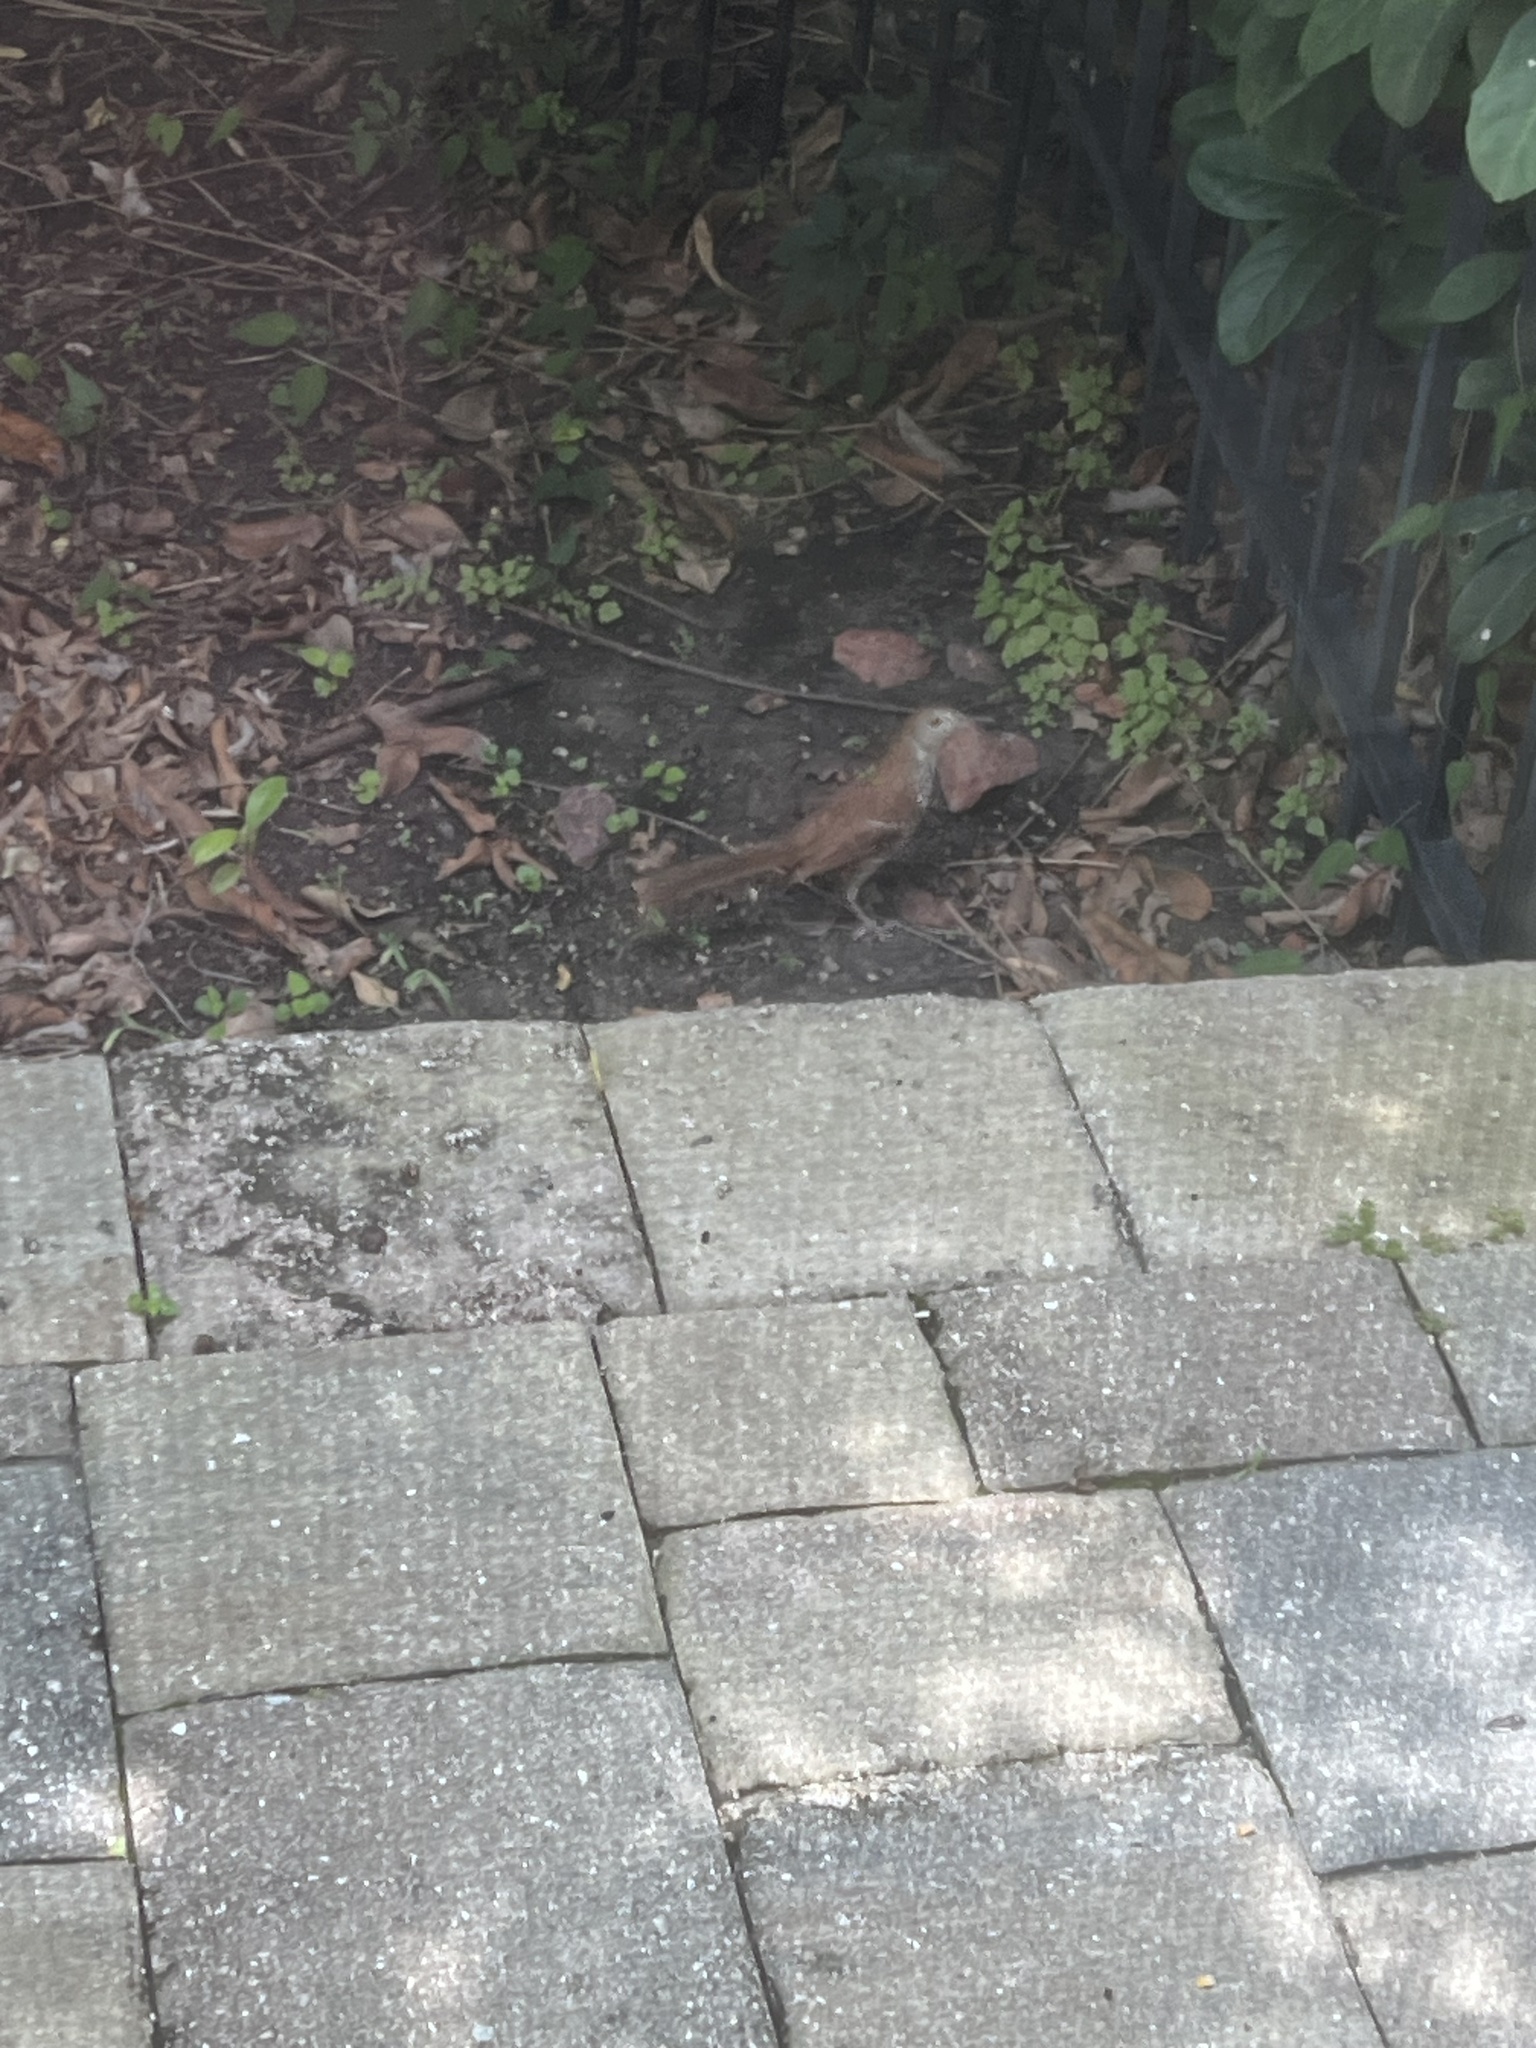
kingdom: Animalia
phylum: Chordata
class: Aves
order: Passeriformes
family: Mimidae
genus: Toxostoma
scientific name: Toxostoma rufum
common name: Brown thrasher
